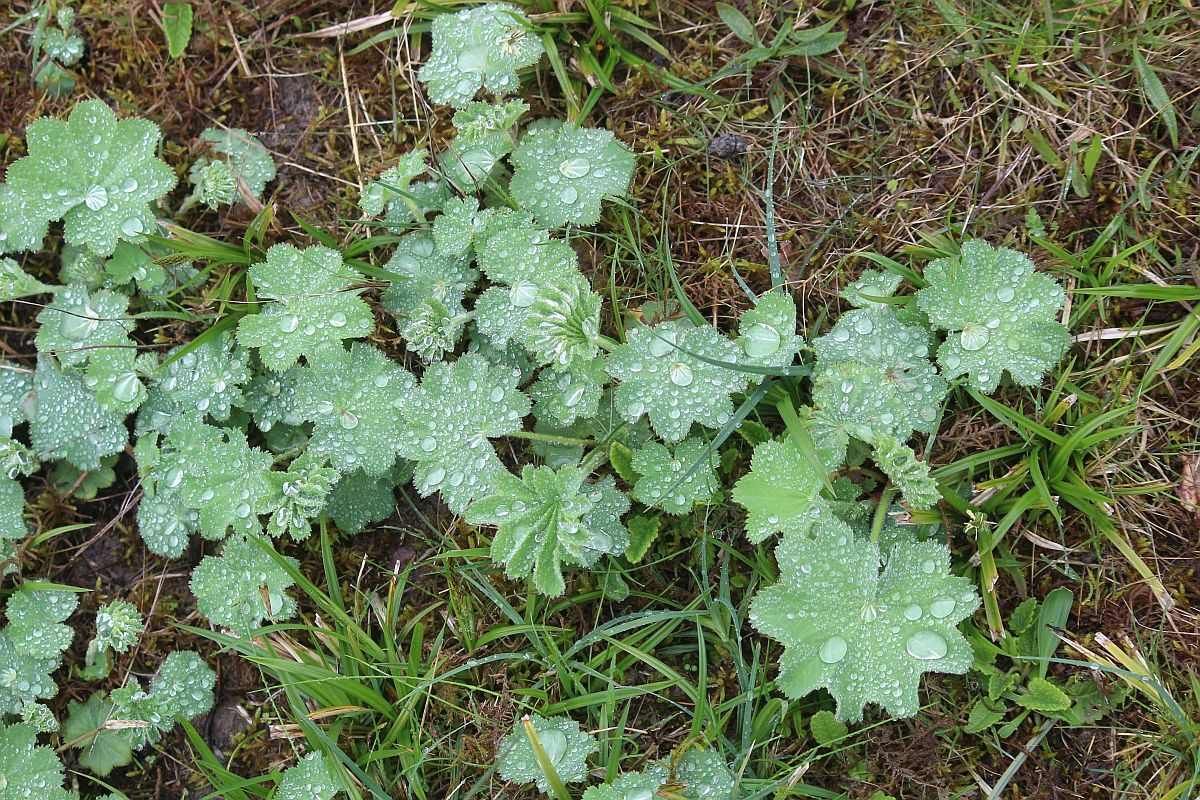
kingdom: Plantae
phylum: Tracheophyta
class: Magnoliopsida
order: Rosales
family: Rosaceae
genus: Alchemilla
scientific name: Alchemilla mollis
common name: Lady's-mantle
